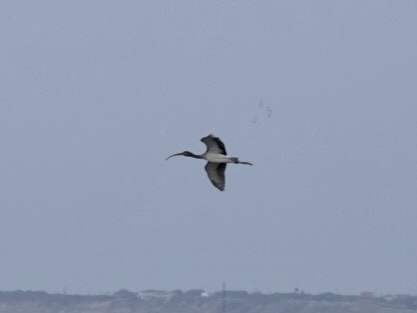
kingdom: Animalia
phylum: Chordata
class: Aves
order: Pelecaniformes
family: Threskiornithidae
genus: Eudocimus
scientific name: Eudocimus albus
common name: White ibis
